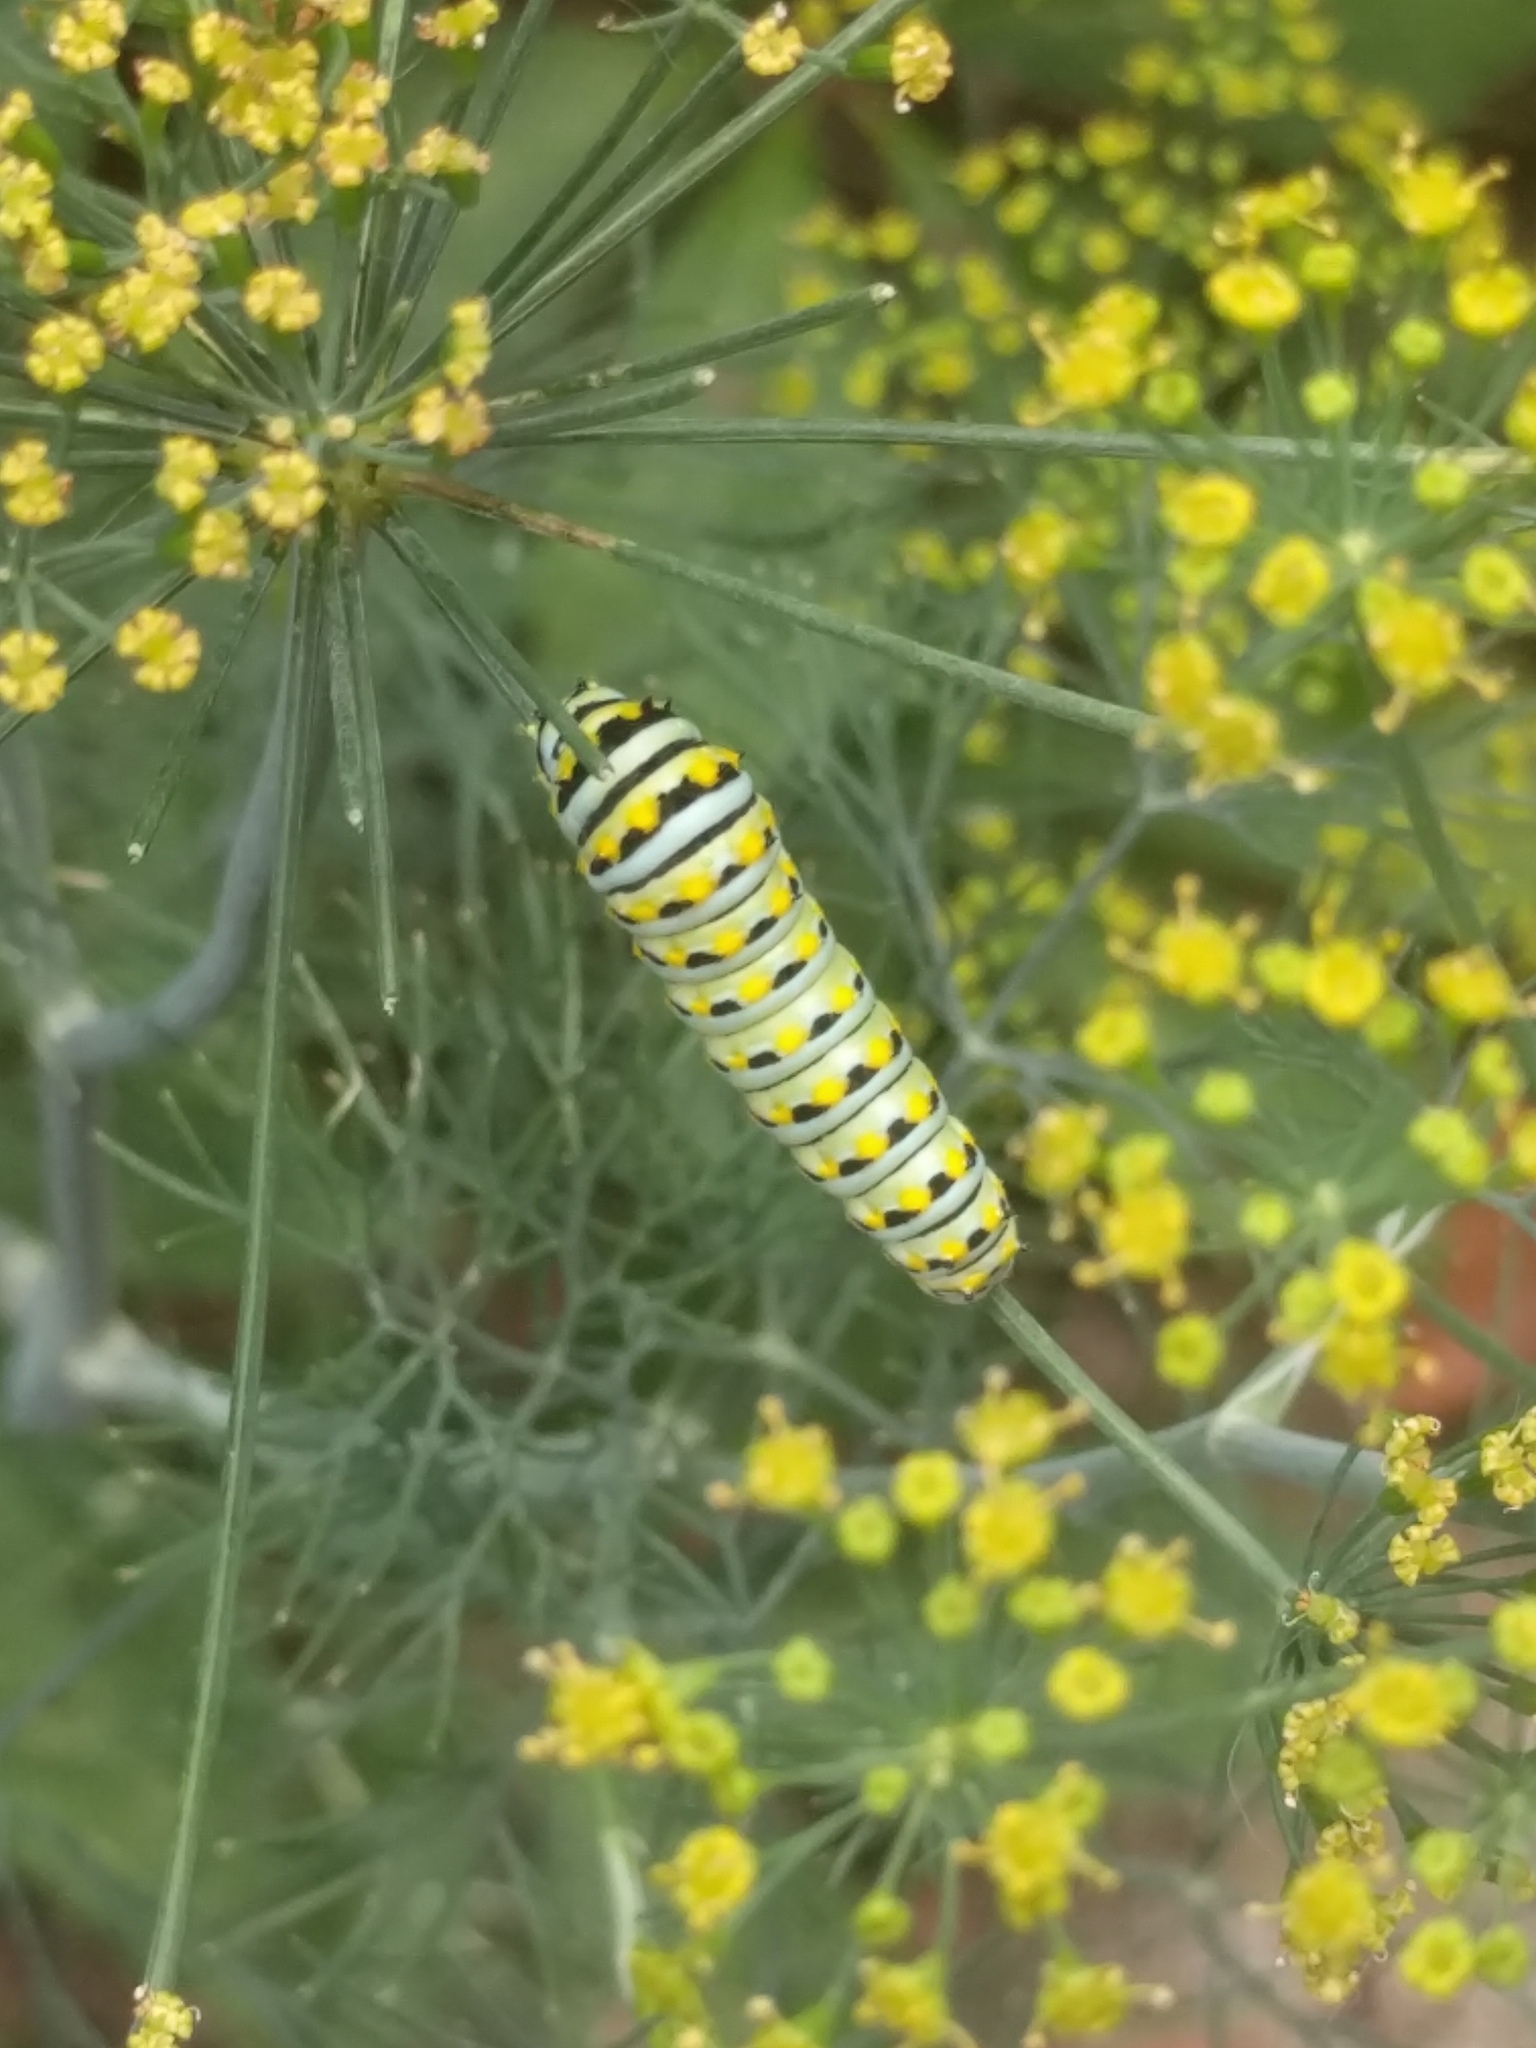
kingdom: Animalia
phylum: Arthropoda
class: Insecta
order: Lepidoptera
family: Papilionidae
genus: Papilio
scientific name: Papilio polyxenes
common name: Black swallowtail
